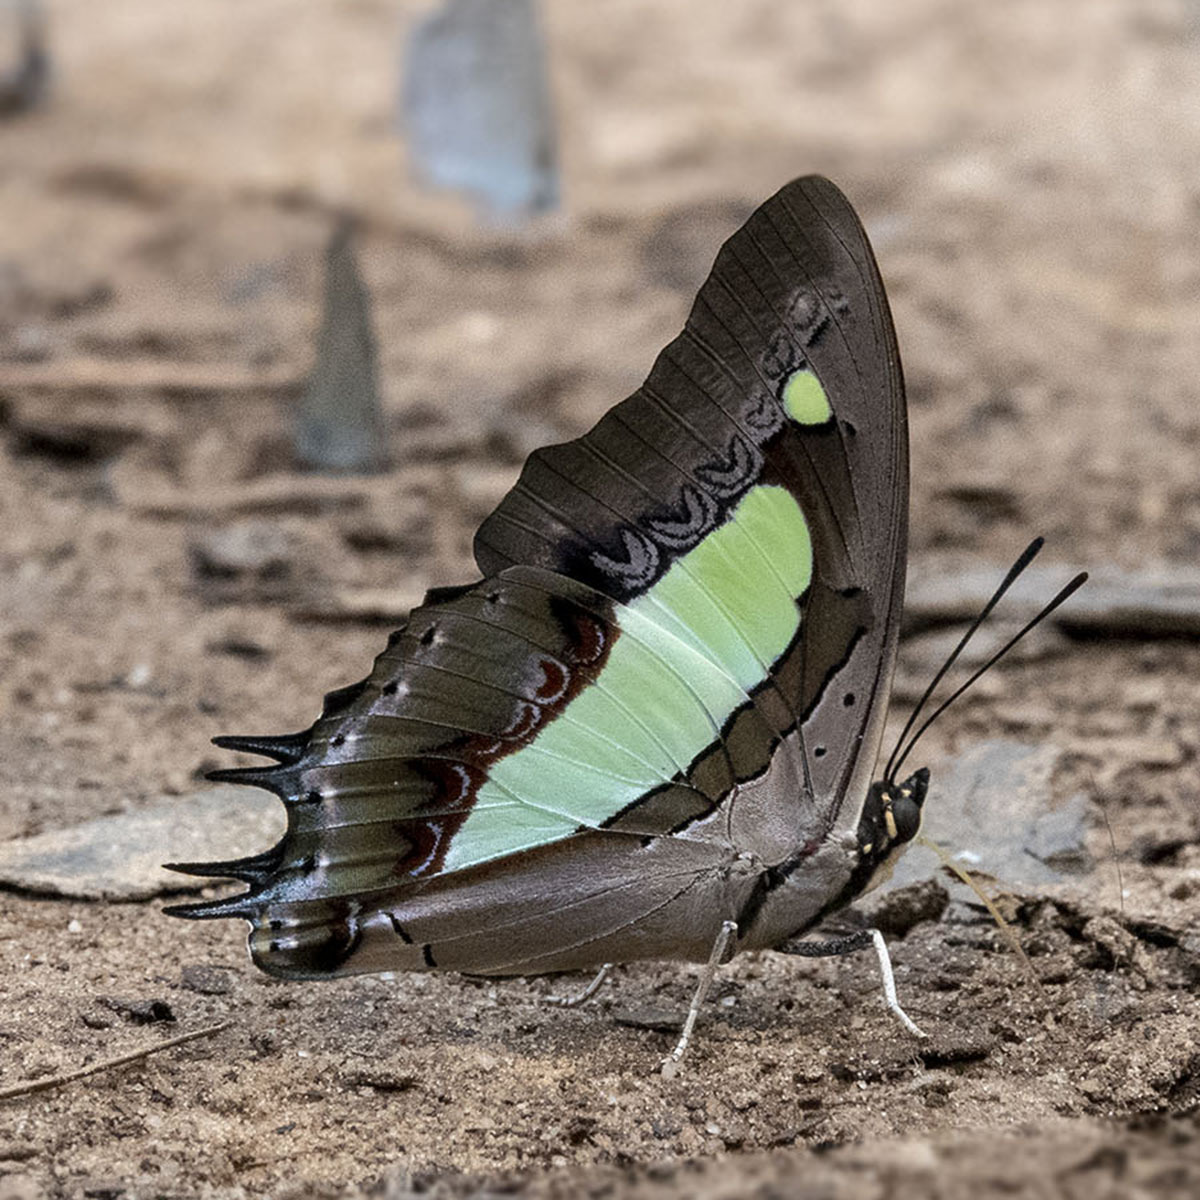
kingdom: Animalia
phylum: Arthropoda
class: Insecta
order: Lepidoptera
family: Nymphalidae
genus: Polyura
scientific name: Polyura
